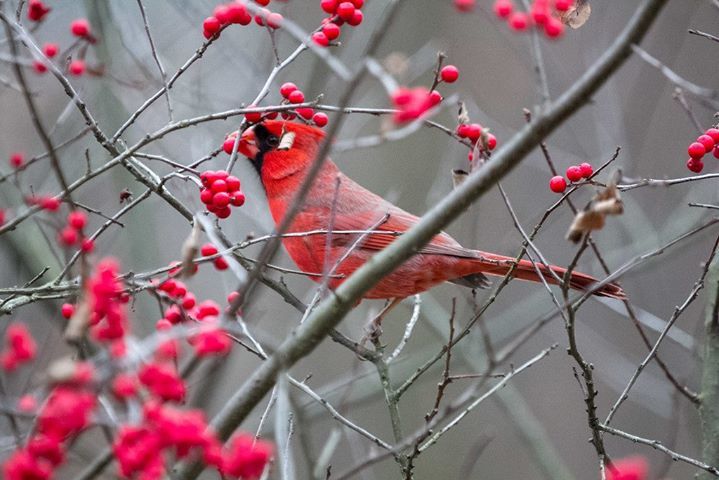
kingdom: Animalia
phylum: Chordata
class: Aves
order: Passeriformes
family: Cardinalidae
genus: Cardinalis
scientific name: Cardinalis cardinalis
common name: Northern cardinal
